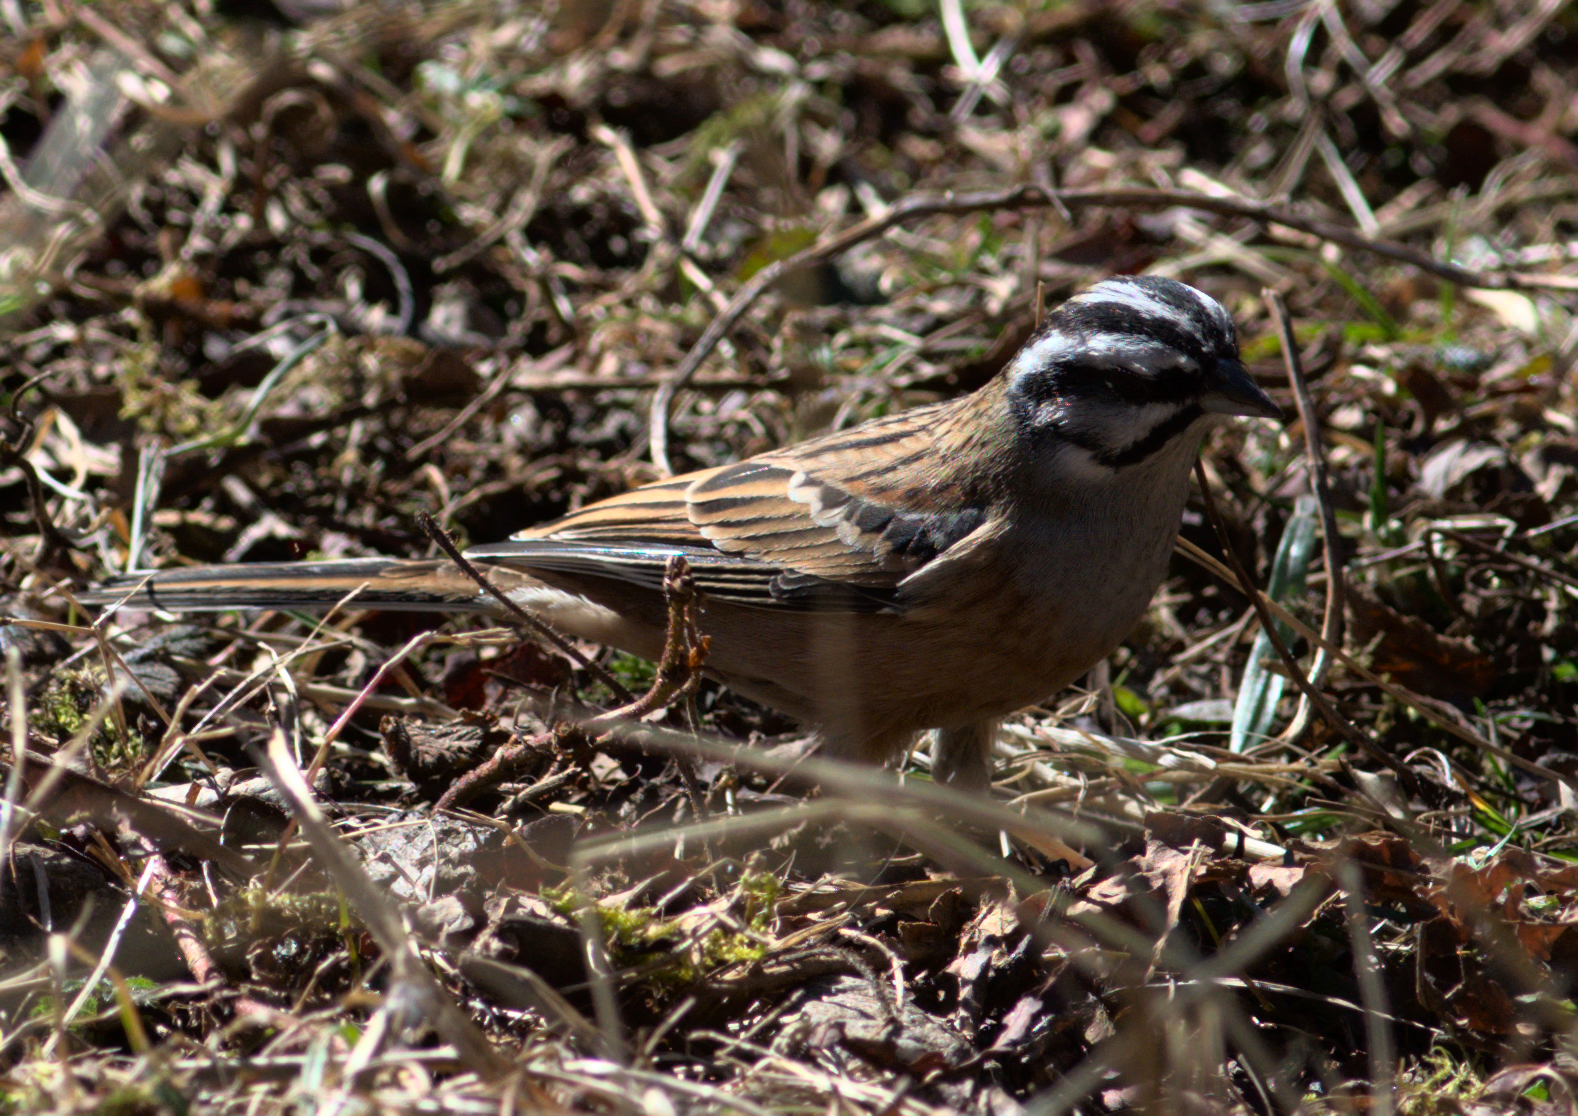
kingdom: Animalia
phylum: Chordata
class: Aves
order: Passeriformes
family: Emberizidae
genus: Emberiza
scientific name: Emberiza cia
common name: Rock bunting
